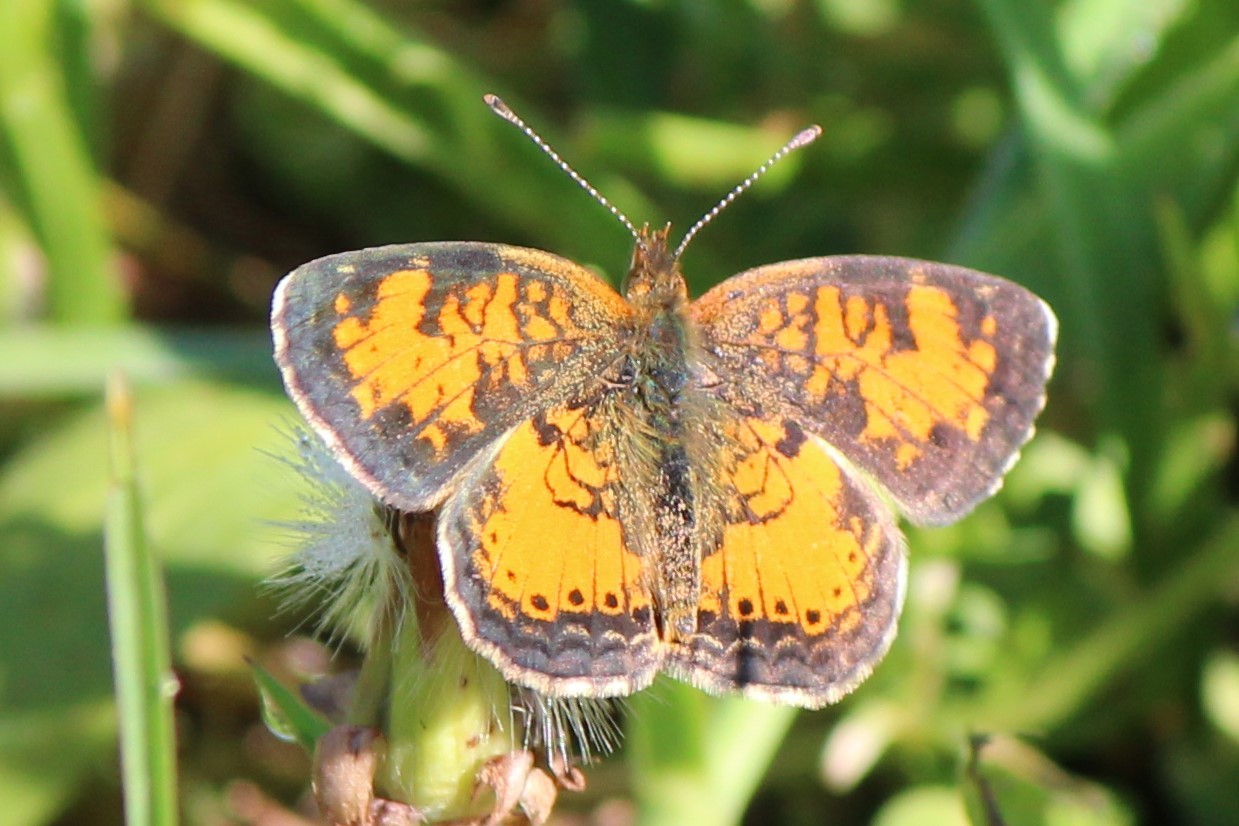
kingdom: Animalia
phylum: Arthropoda
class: Insecta
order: Lepidoptera
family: Nymphalidae
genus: Phyciodes
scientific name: Phyciodes tharos
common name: Pearl crescent
